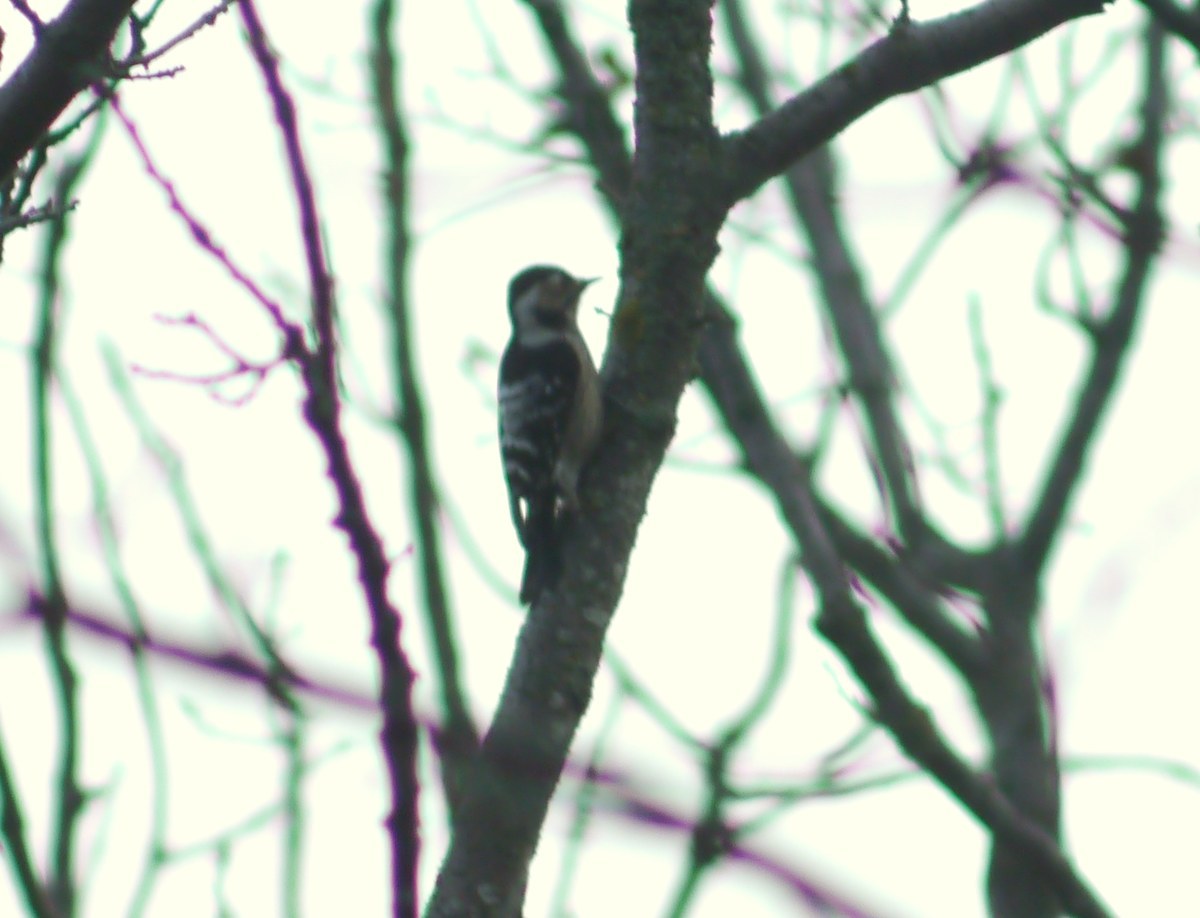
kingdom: Animalia
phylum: Chordata
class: Aves
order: Piciformes
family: Picidae
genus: Dryobates
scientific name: Dryobates minor
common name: Lesser spotted woodpecker
